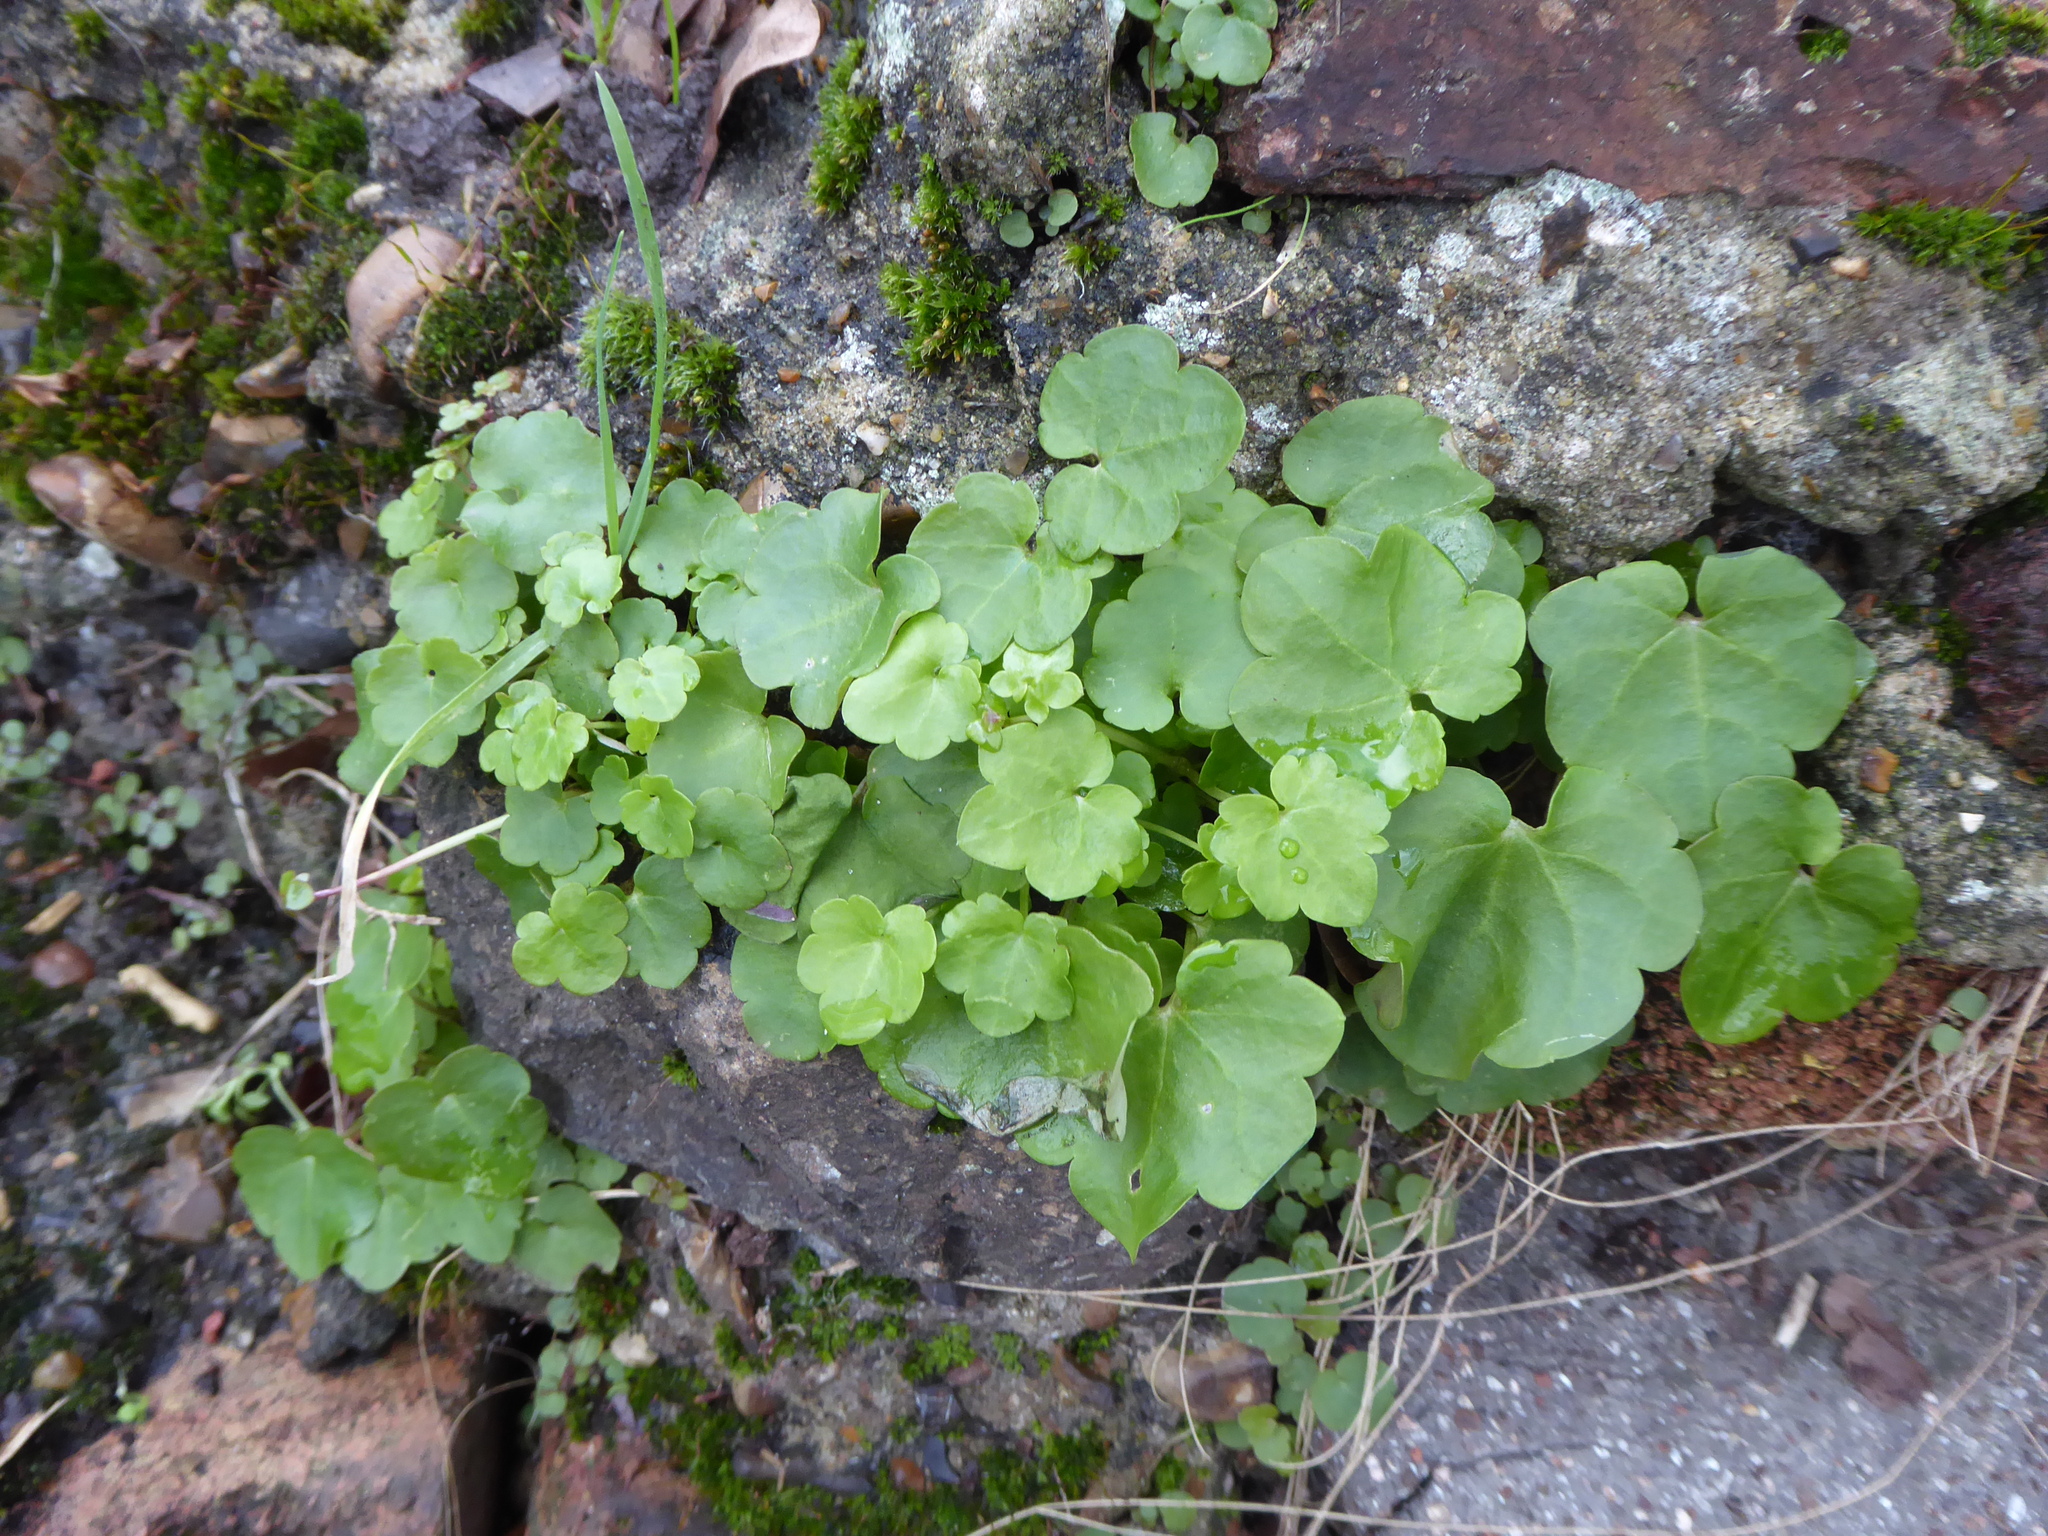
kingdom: Plantae
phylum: Tracheophyta
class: Magnoliopsida
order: Lamiales
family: Plantaginaceae
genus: Cymbalaria
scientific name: Cymbalaria muralis
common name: Ivy-leaved toadflax
